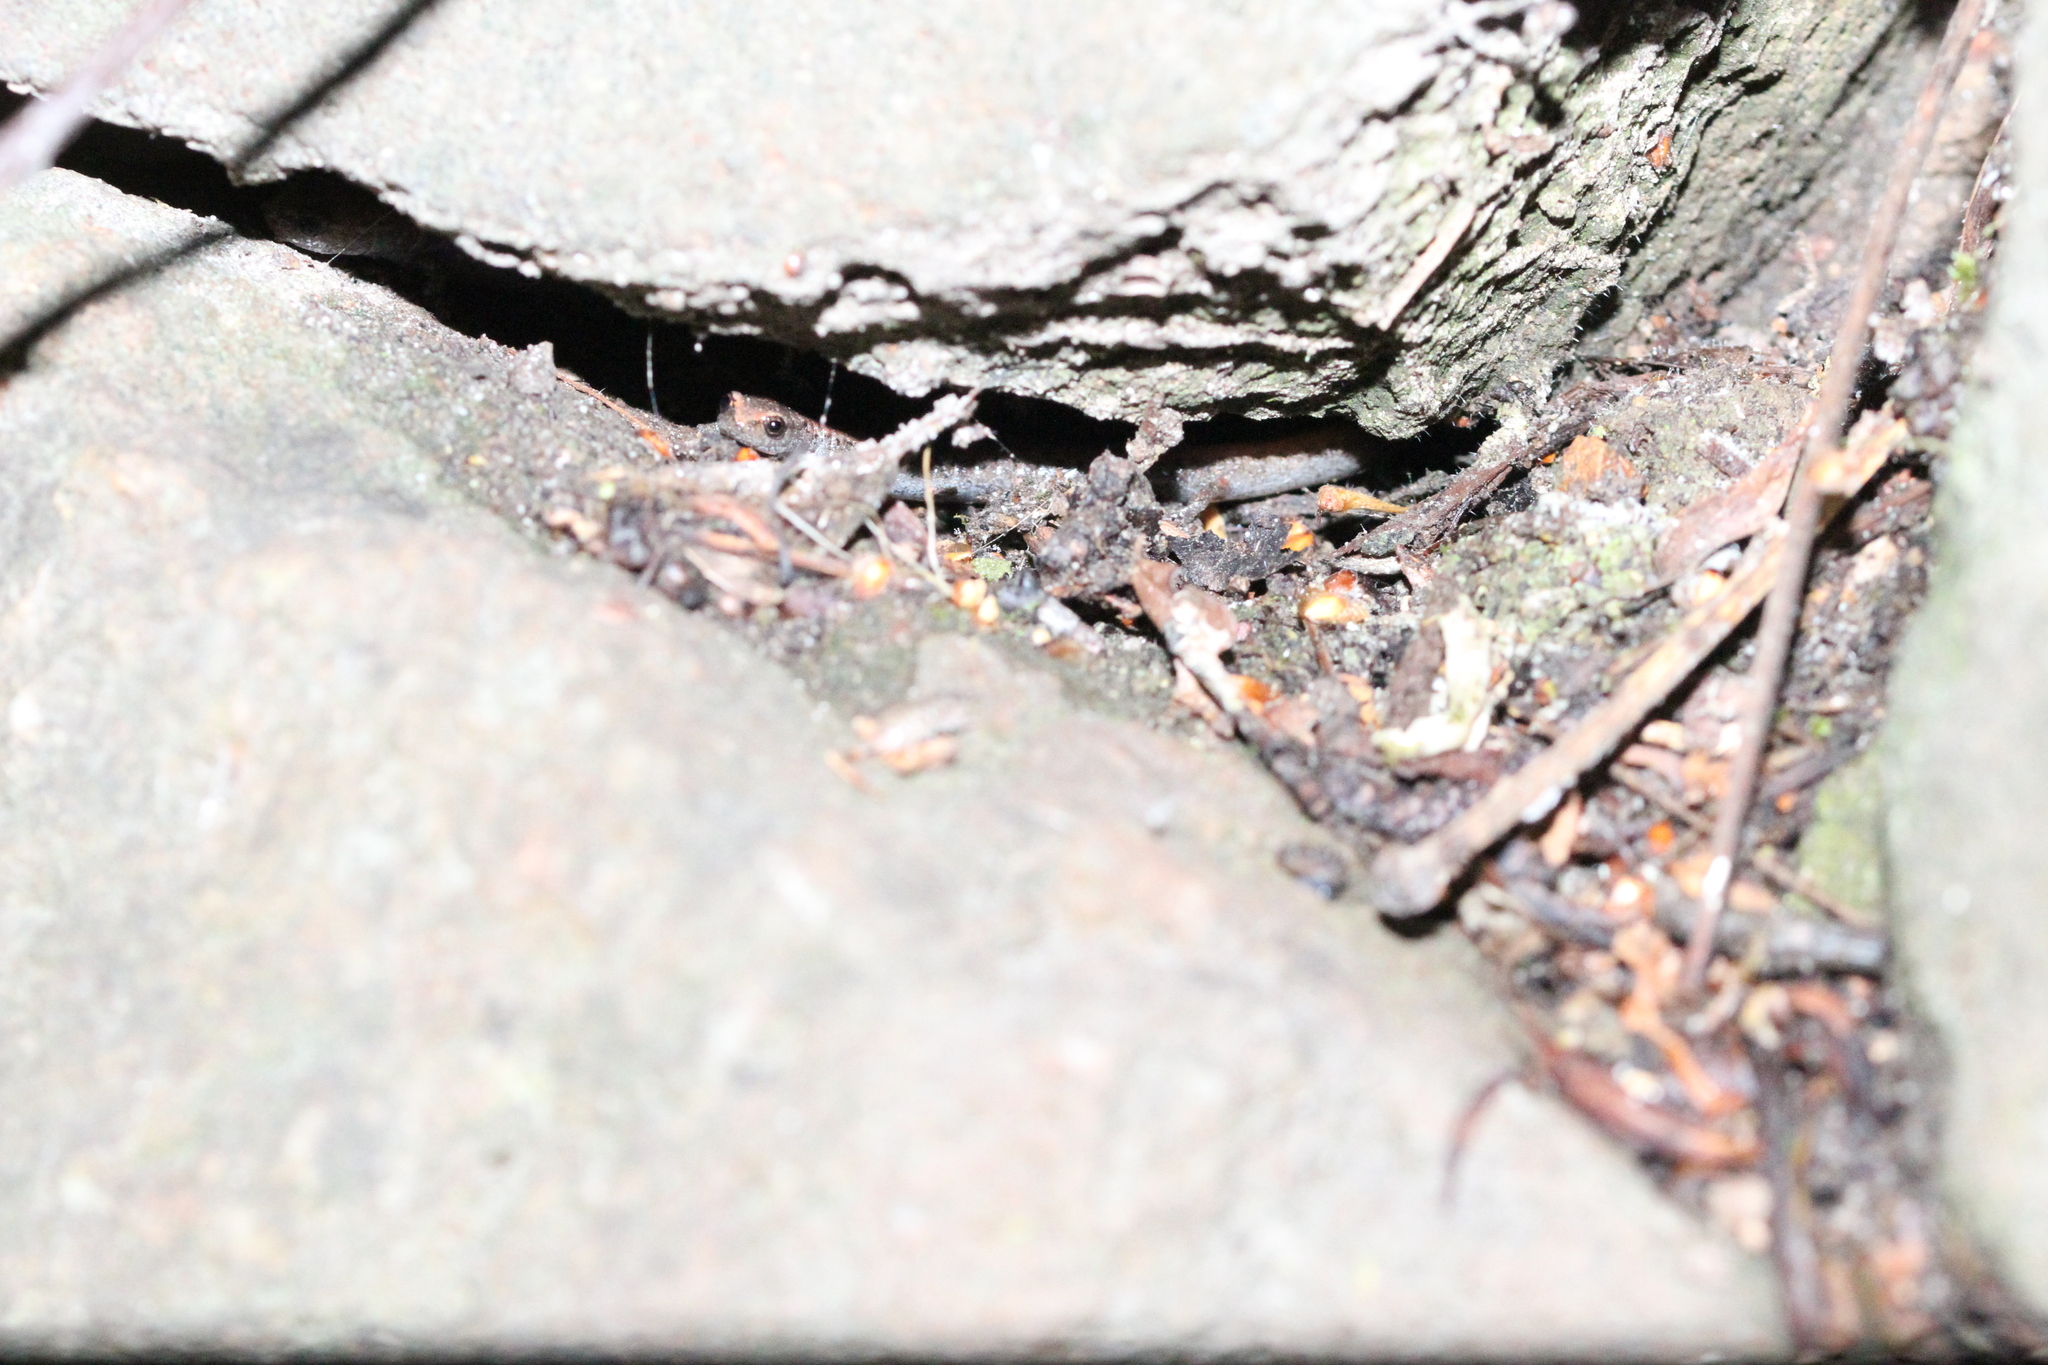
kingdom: Animalia
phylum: Chordata
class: Amphibia
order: Caudata
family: Plethodontidae
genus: Batrachoseps
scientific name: Batrachoseps attenuatus
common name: California slender salamander
